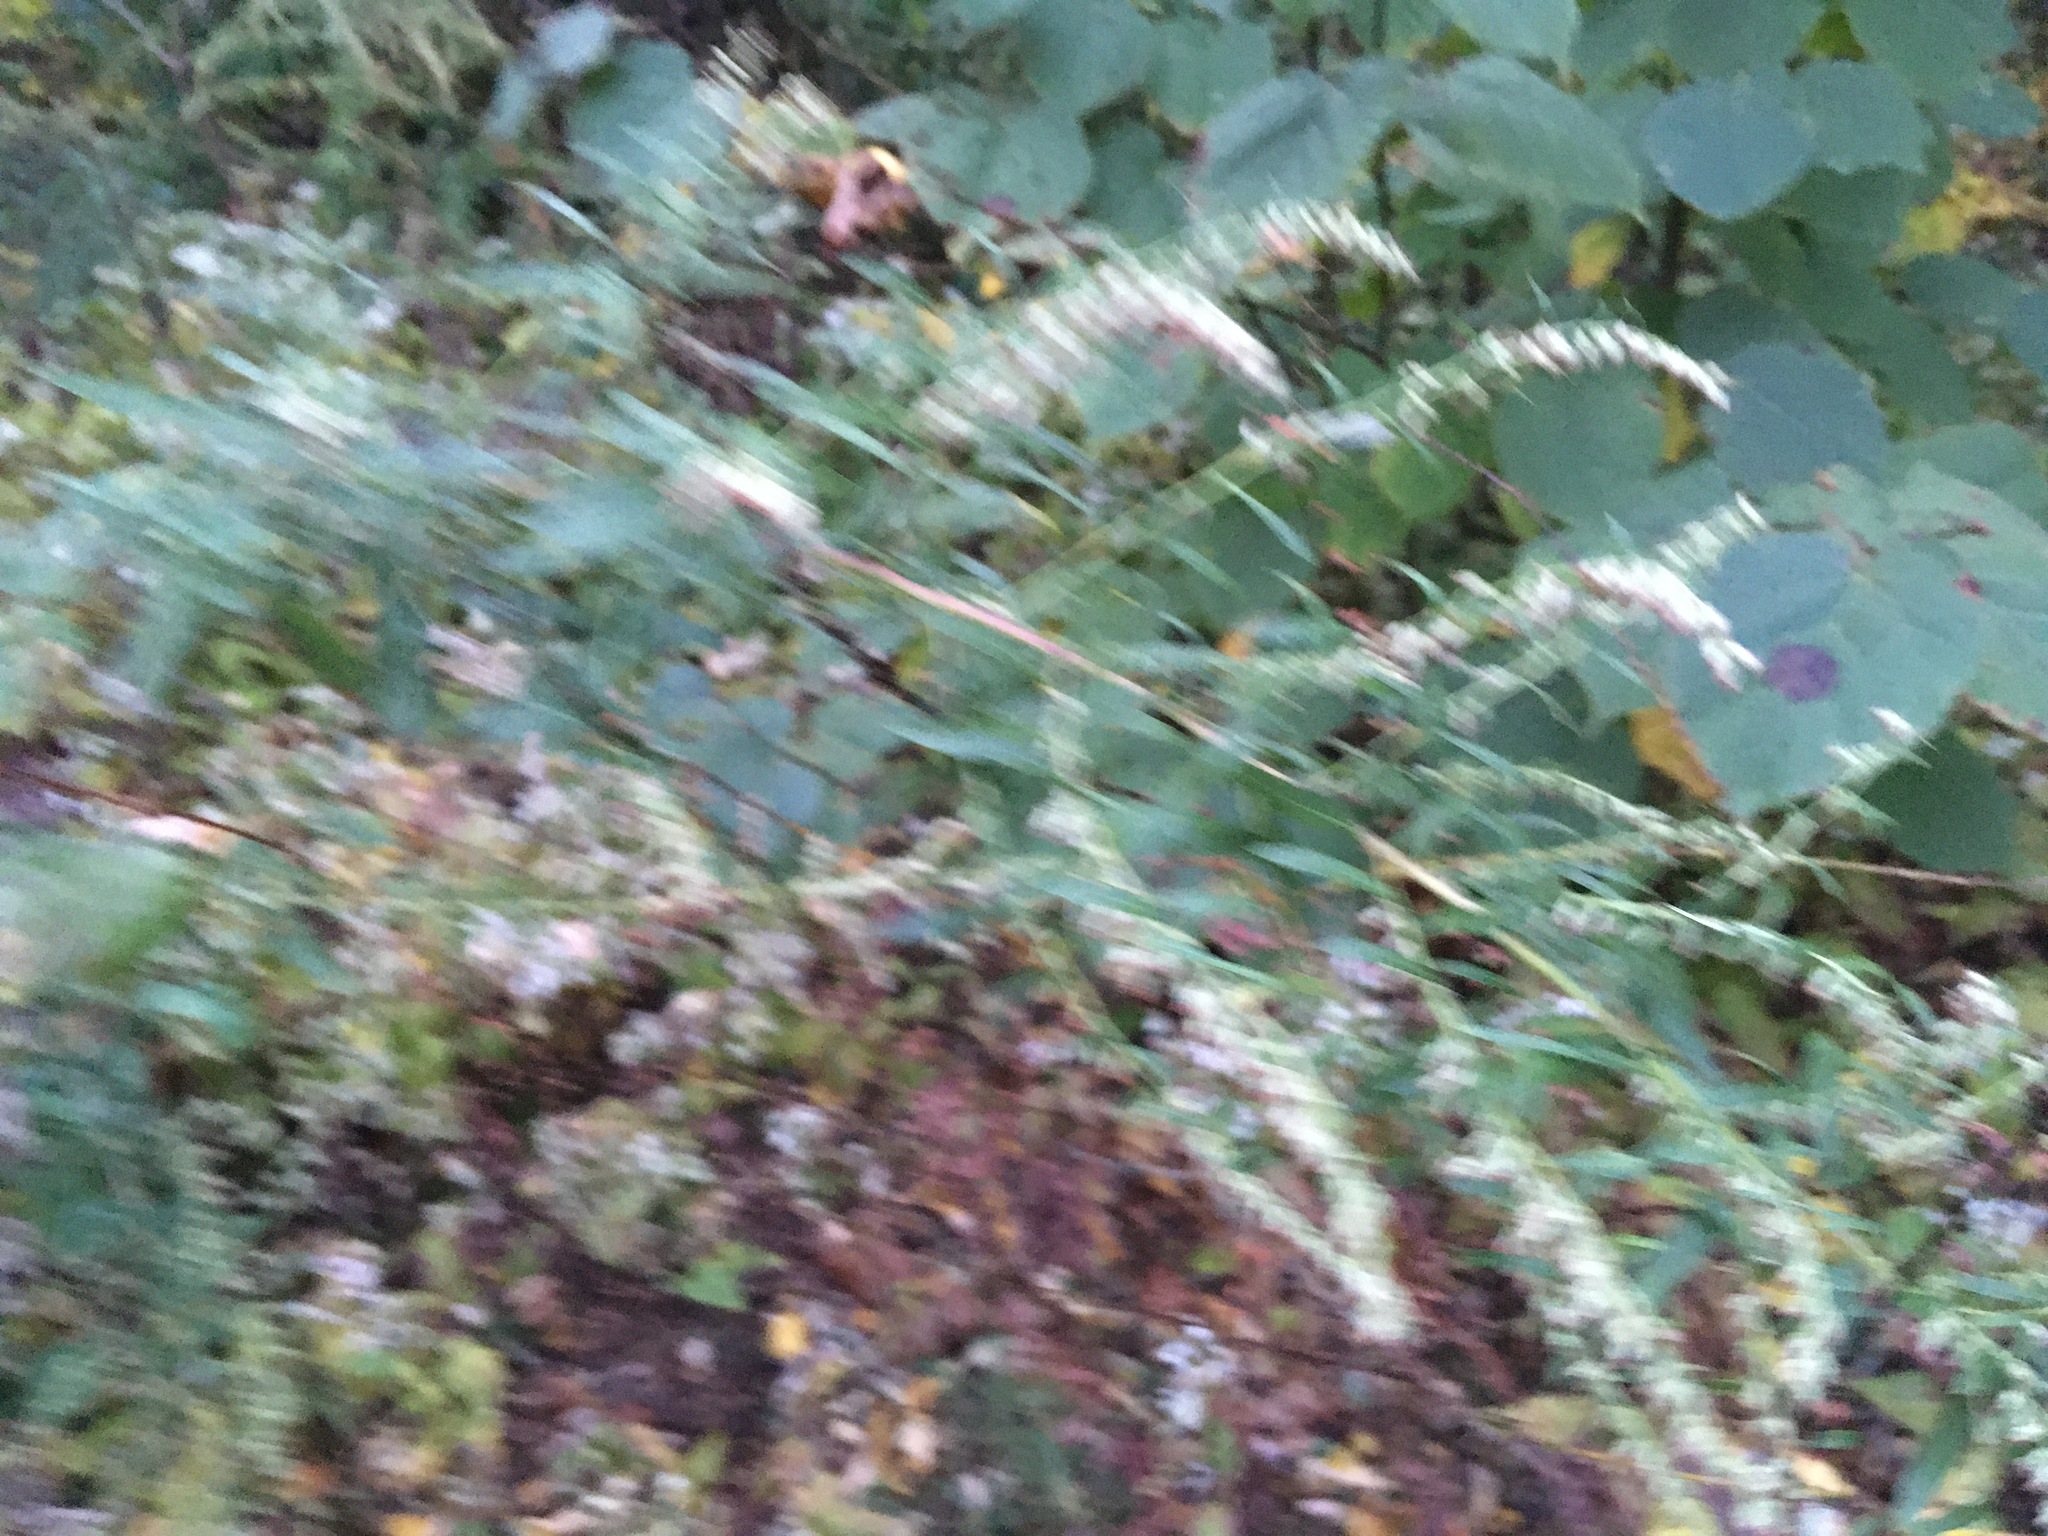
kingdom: Plantae
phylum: Tracheophyta
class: Magnoliopsida
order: Asterales
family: Asteraceae
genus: Artemisia
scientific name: Artemisia vulgaris
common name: Mugwort
